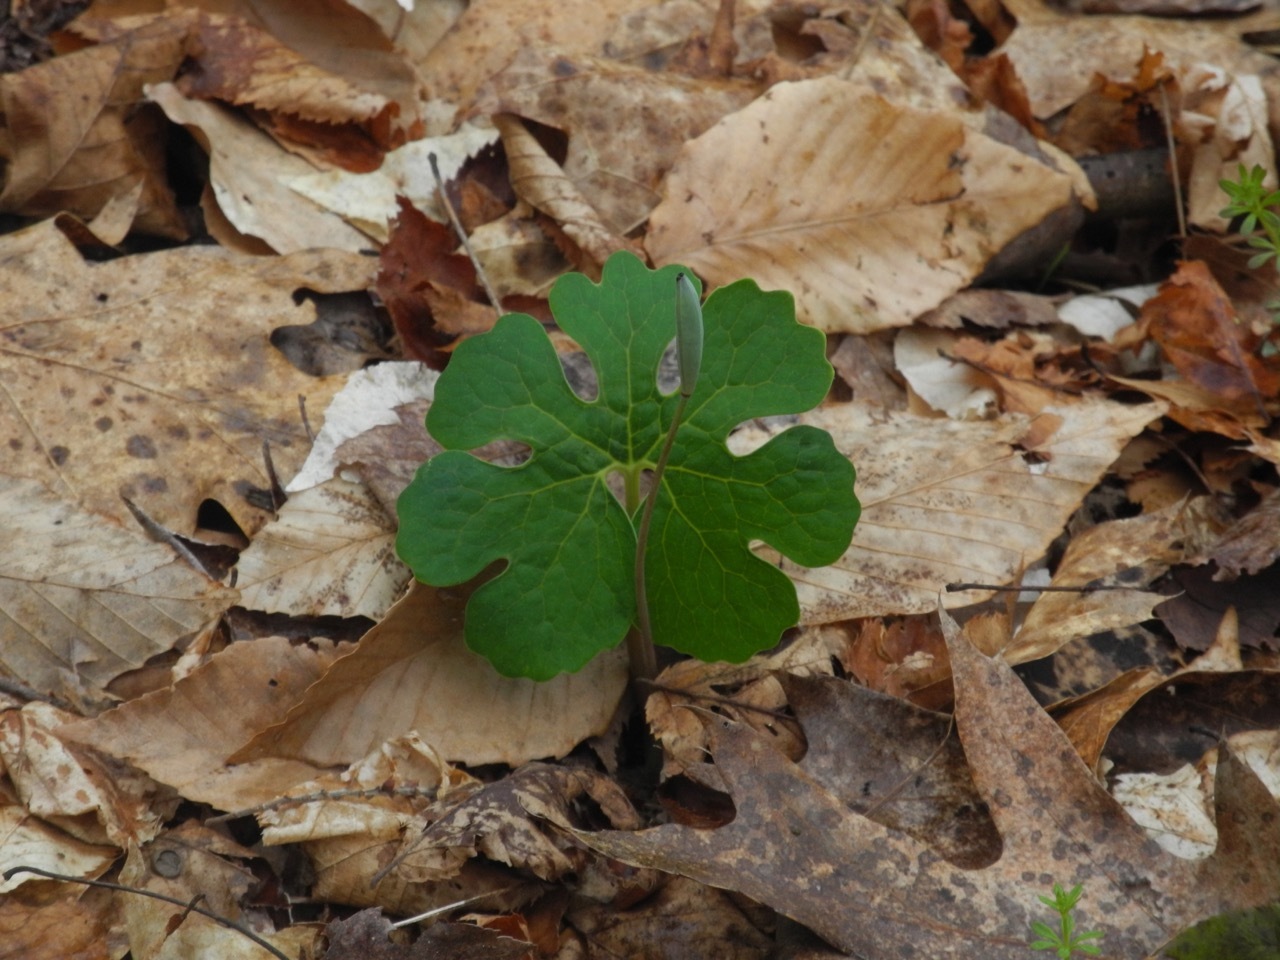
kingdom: Plantae
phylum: Tracheophyta
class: Magnoliopsida
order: Ranunculales
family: Papaveraceae
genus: Sanguinaria
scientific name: Sanguinaria canadensis
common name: Bloodroot
